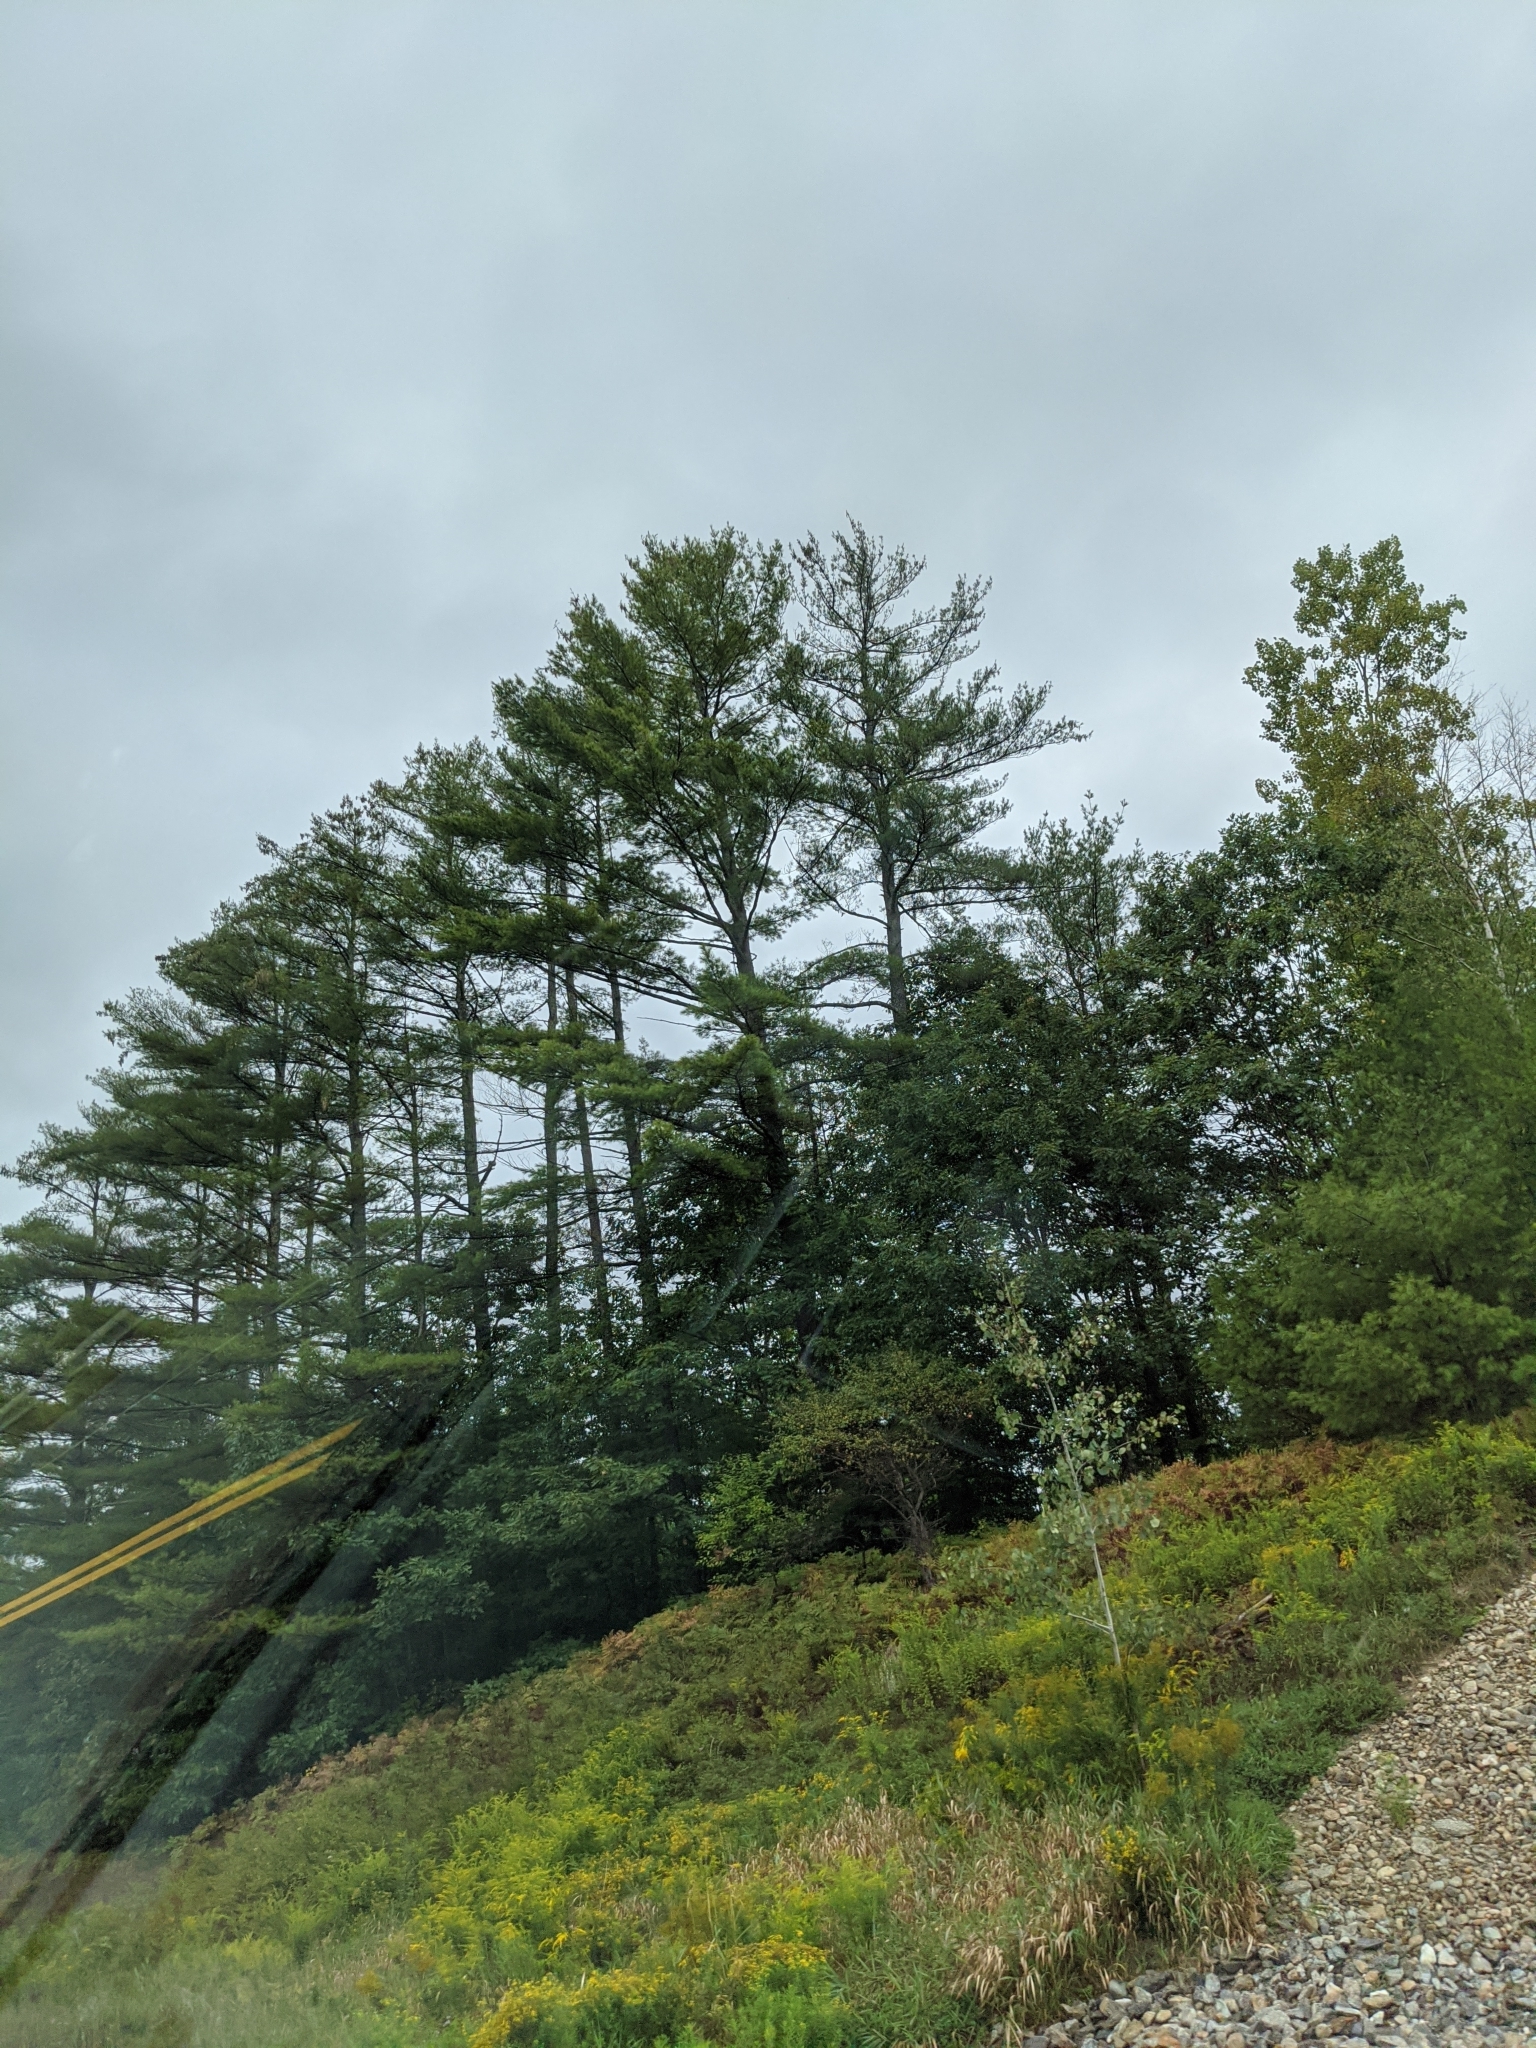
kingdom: Plantae
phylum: Tracheophyta
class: Pinopsida
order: Pinales
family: Pinaceae
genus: Pinus
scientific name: Pinus strobus
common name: Weymouth pine
